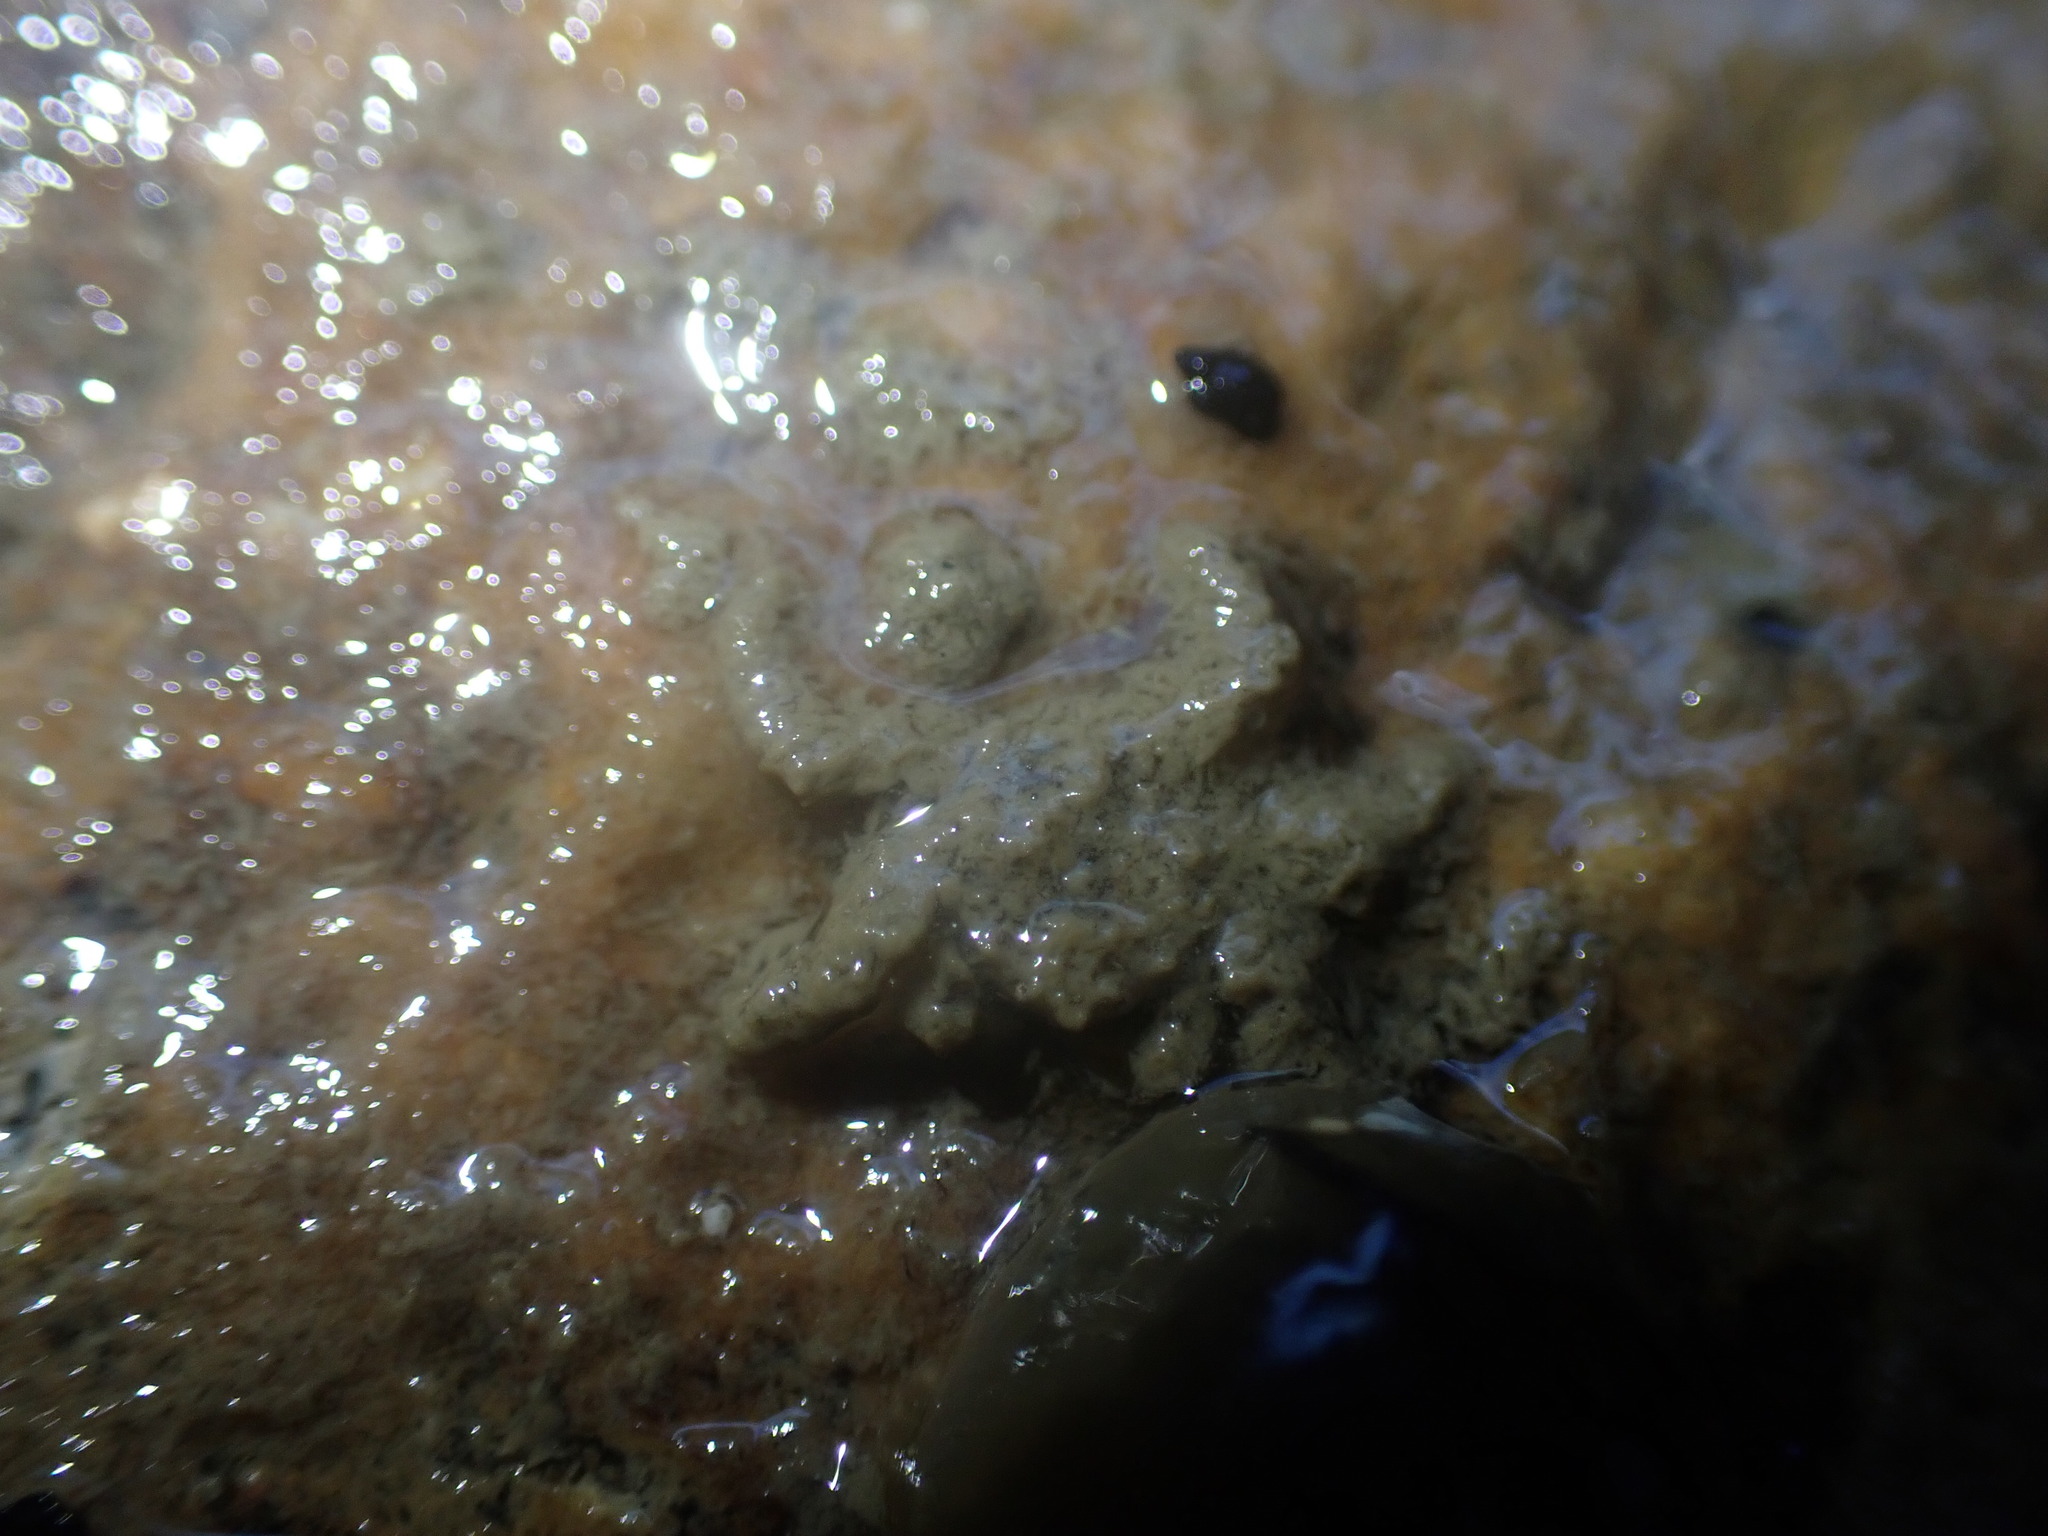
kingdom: Animalia
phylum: Arthropoda
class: Malacostraca
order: Decapoda
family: Hymenosomatidae
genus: Neohymenicus
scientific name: Neohymenicus pubescens
